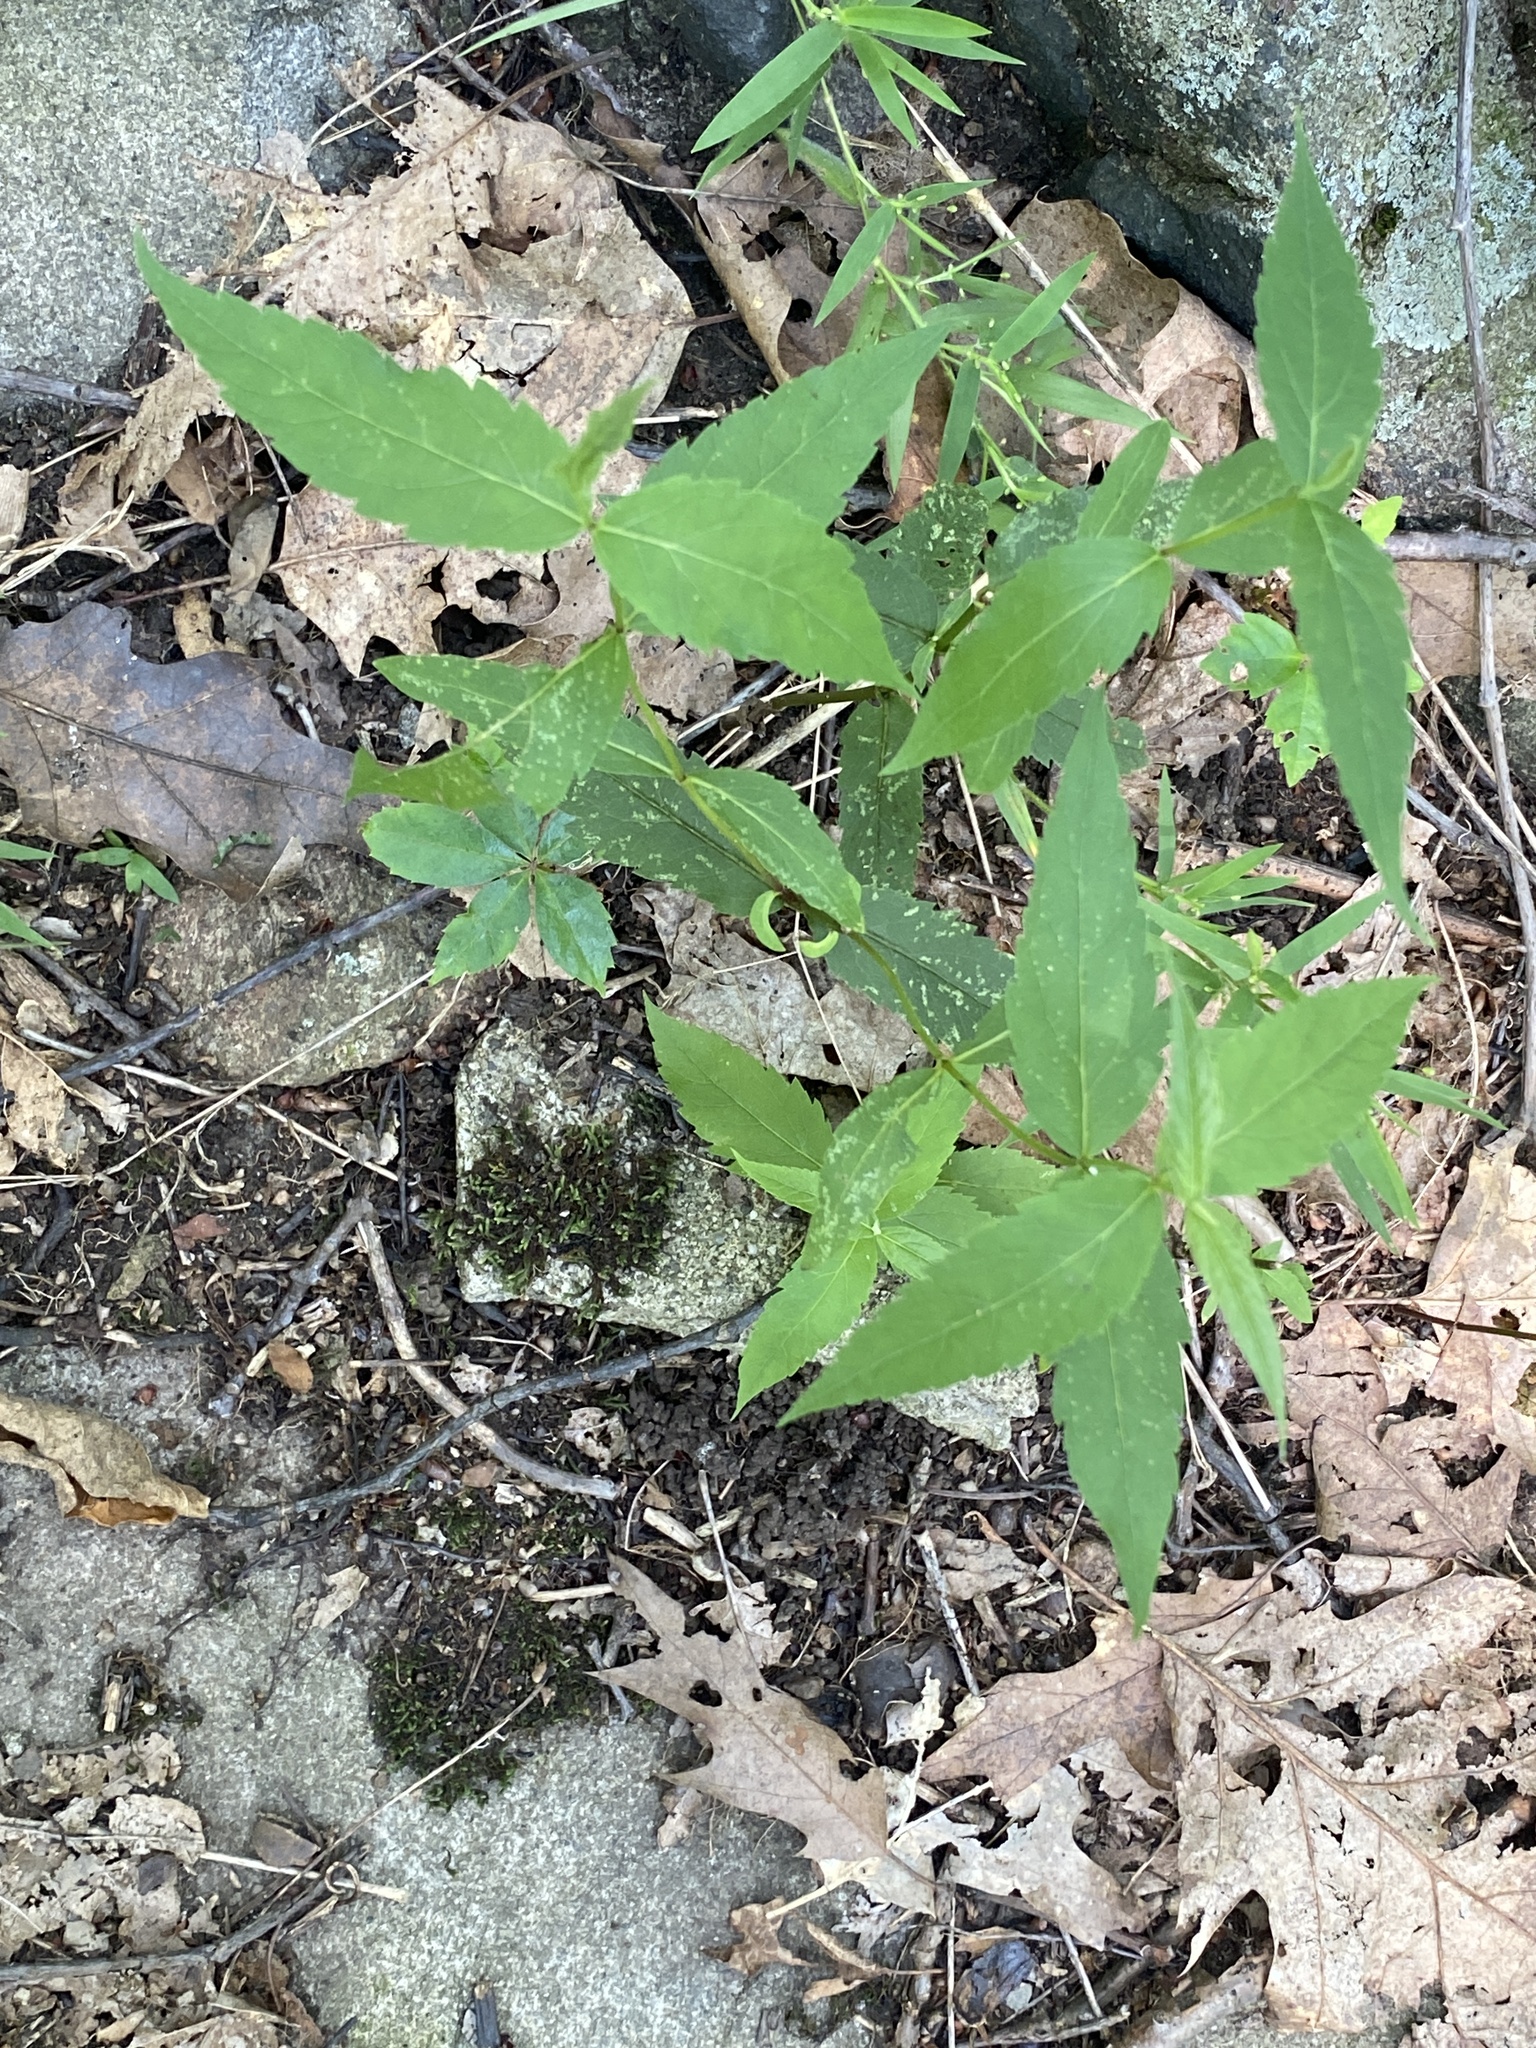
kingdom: Plantae
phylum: Tracheophyta
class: Magnoliopsida
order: Lamiales
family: Plantaginaceae
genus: Chelone
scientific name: Chelone glabra
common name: Snakehead
